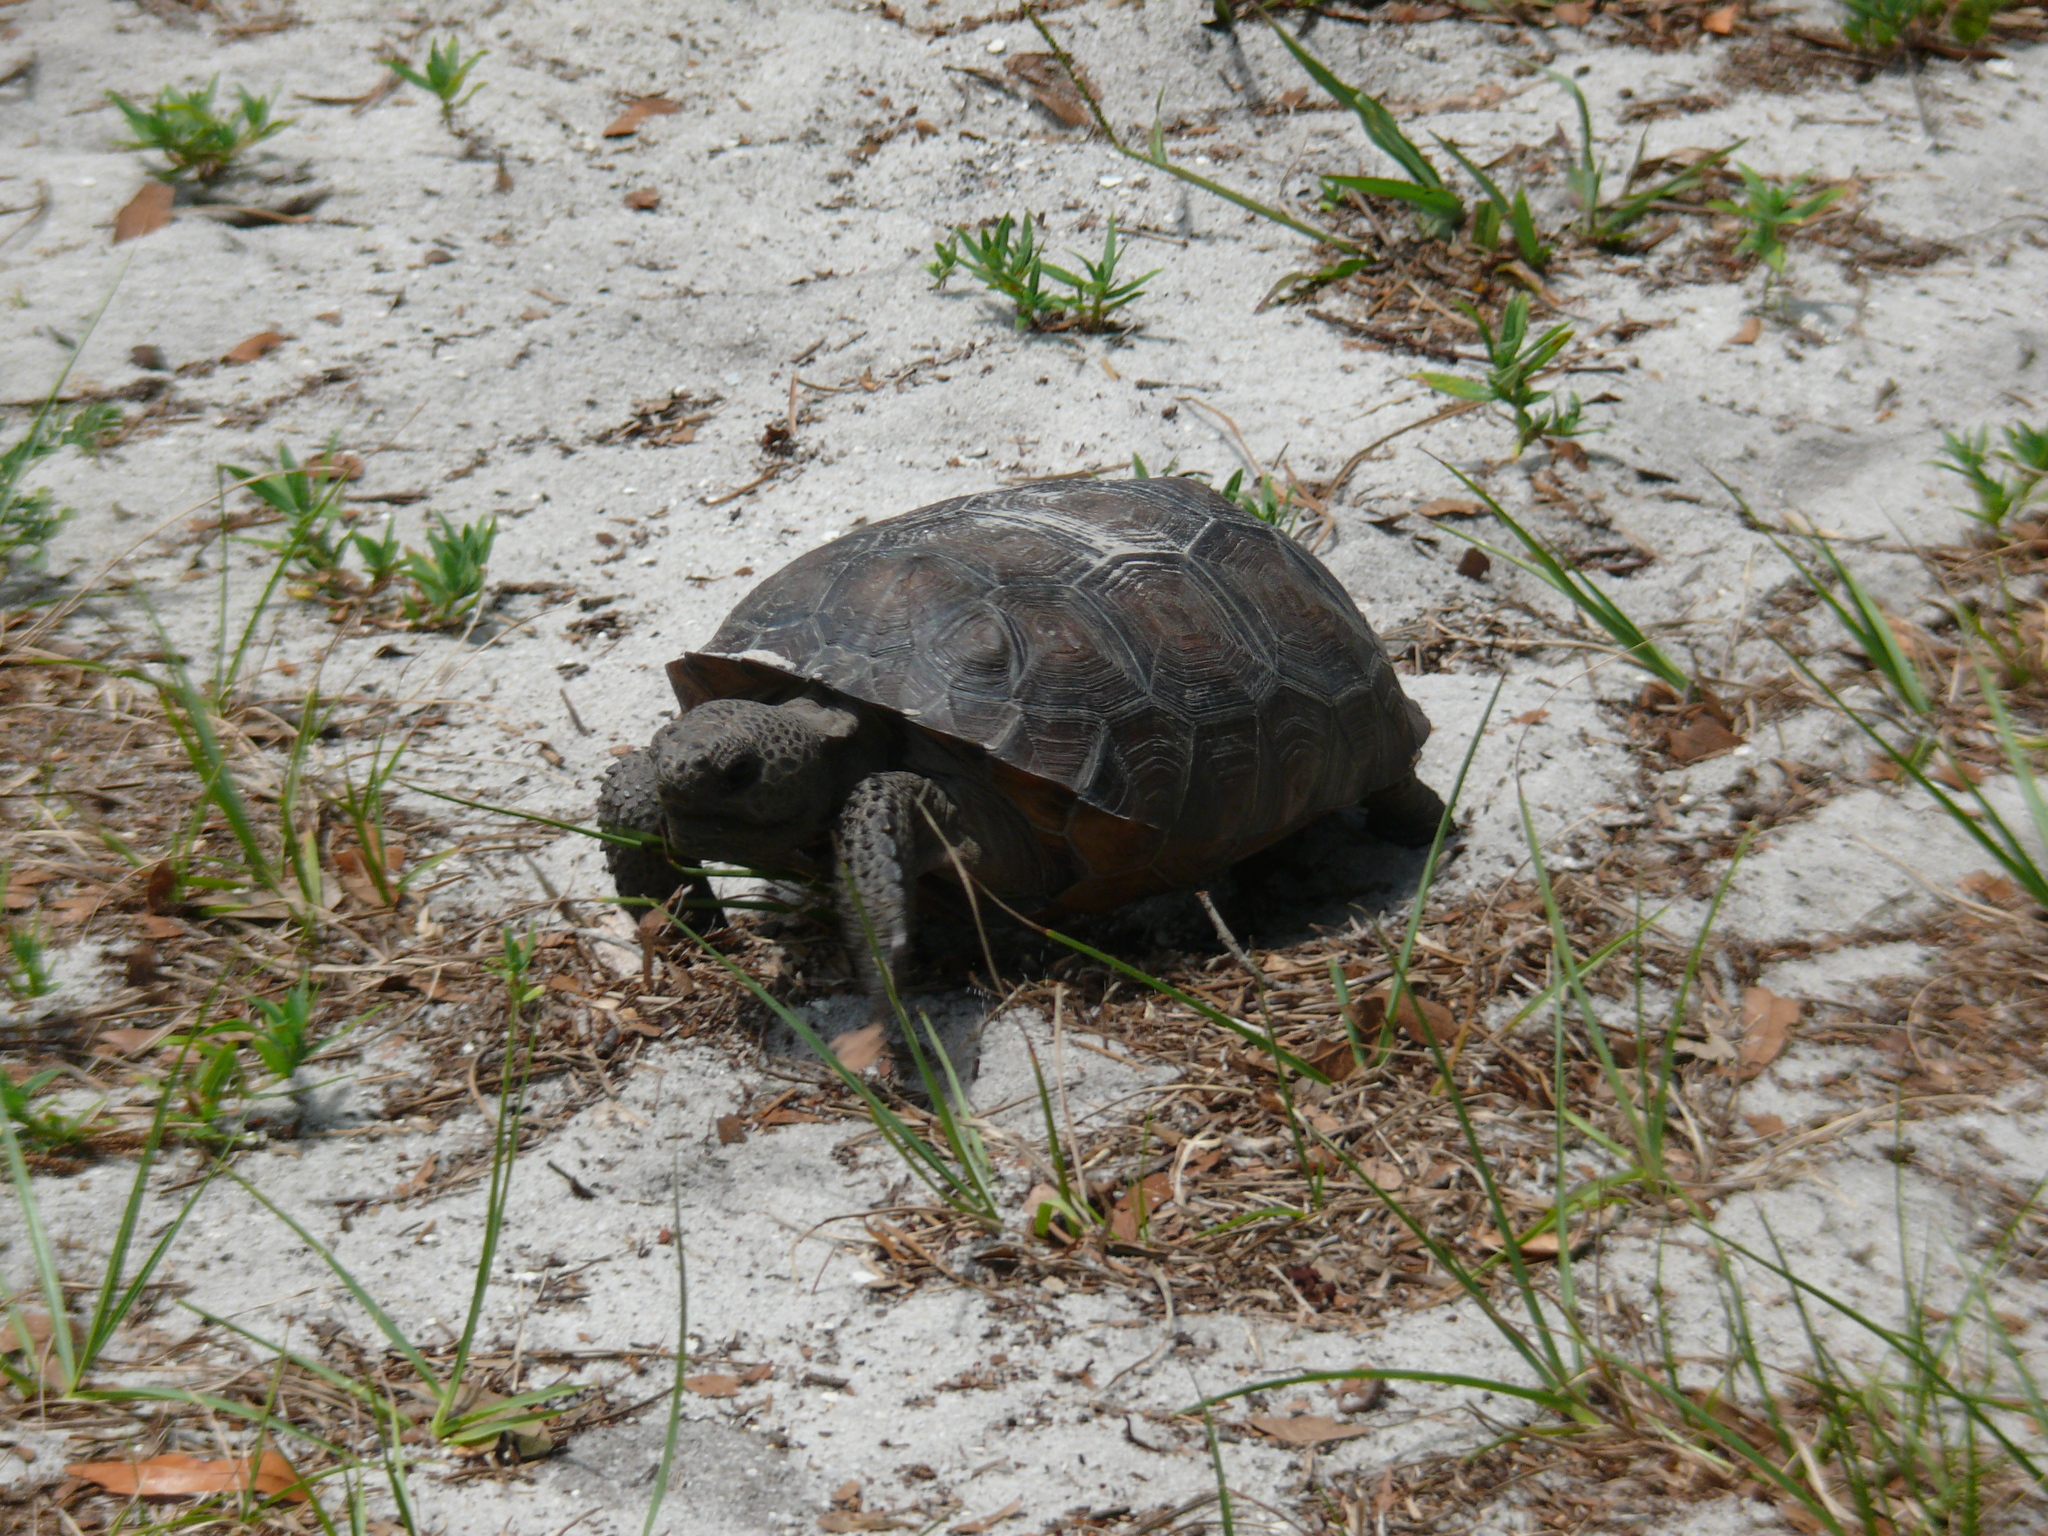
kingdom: Animalia
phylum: Chordata
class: Testudines
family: Testudinidae
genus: Gopherus
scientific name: Gopherus polyphemus
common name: Florida gopher tortoise
